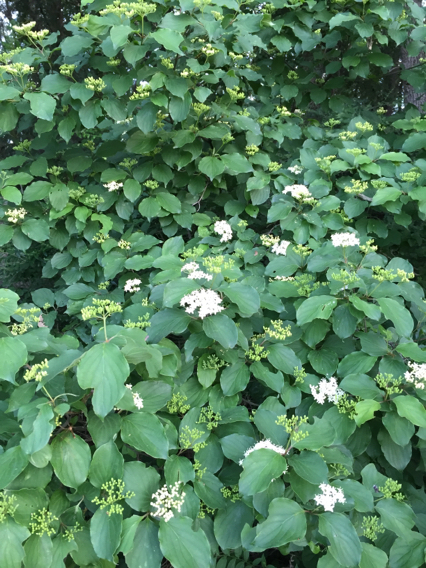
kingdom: Plantae
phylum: Tracheophyta
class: Magnoliopsida
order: Cornales
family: Cornaceae
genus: Cornus
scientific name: Cornus drummondii
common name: Rough-leaf dogwood
